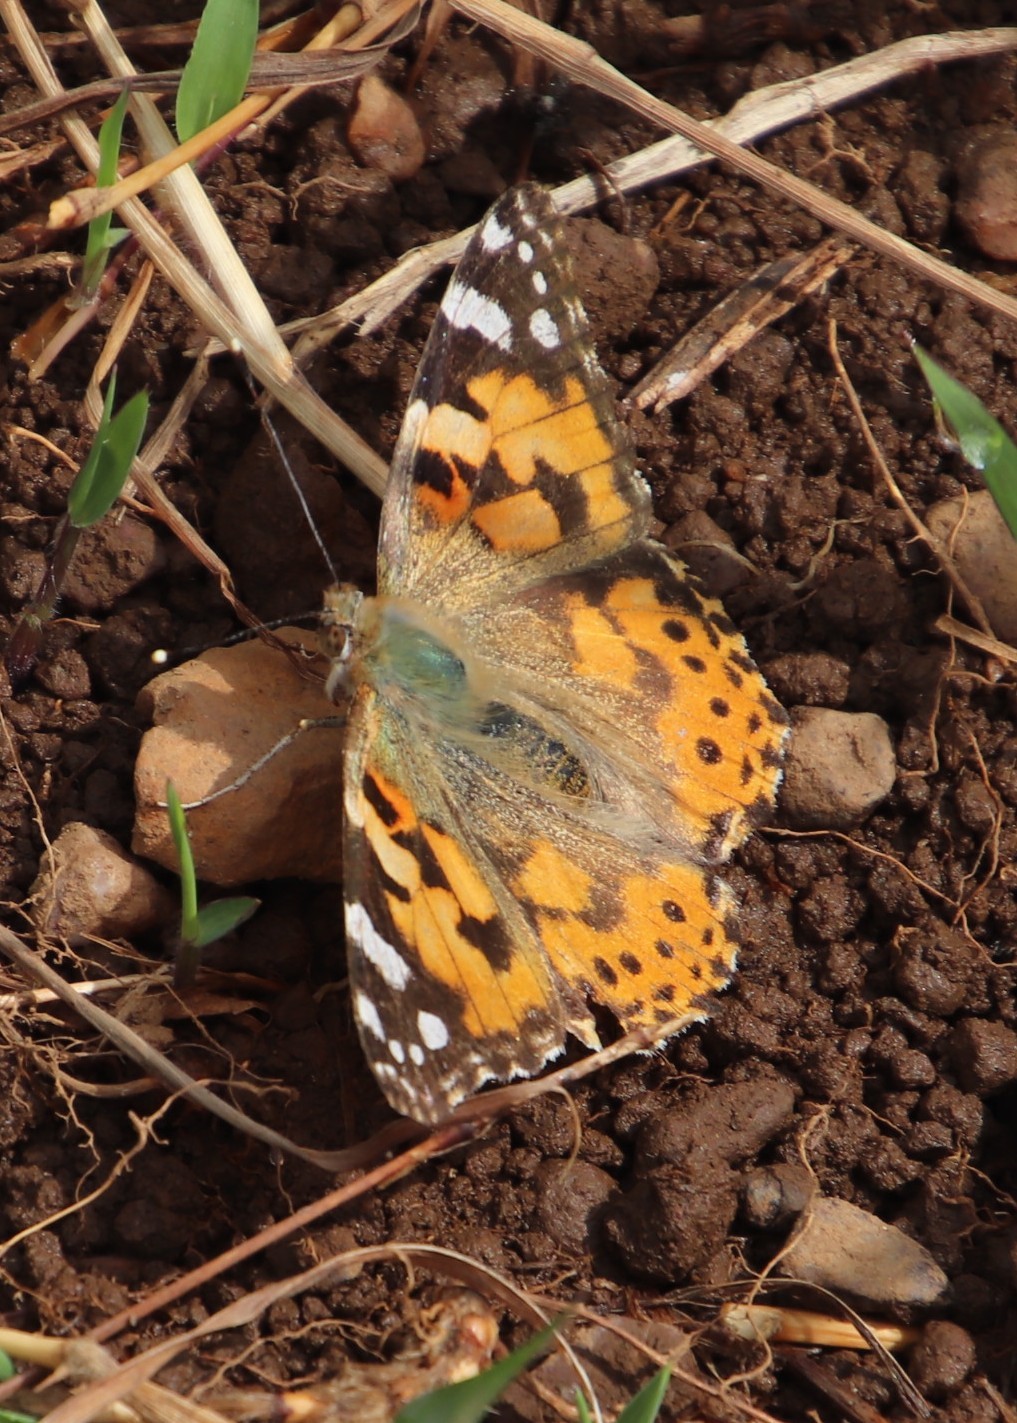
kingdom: Animalia
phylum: Arthropoda
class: Insecta
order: Lepidoptera
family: Nymphalidae
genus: Vanessa
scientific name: Vanessa cardui
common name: Painted lady
